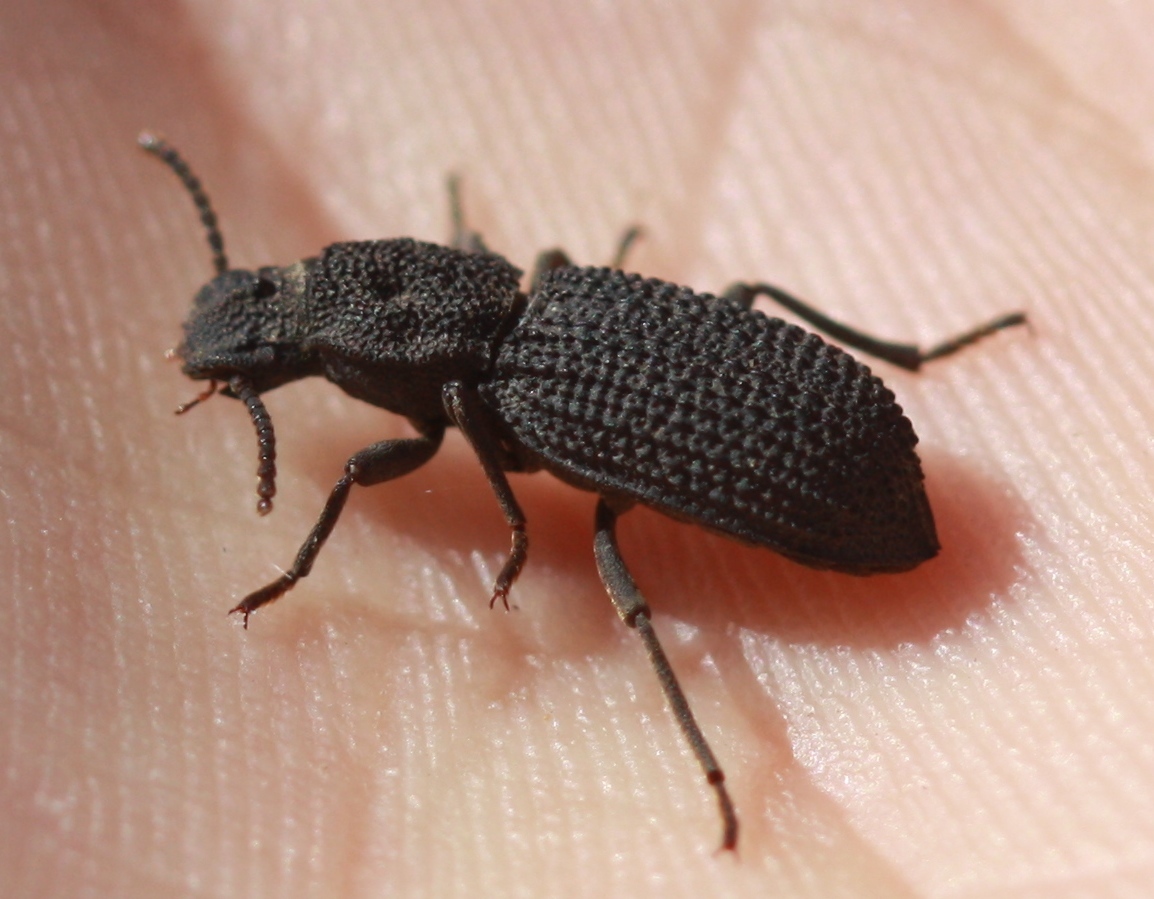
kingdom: Animalia
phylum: Arthropoda
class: Insecta
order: Coleoptera
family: Tenebrionidae
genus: Nyctoporis
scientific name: Nyctoporis sponsa
